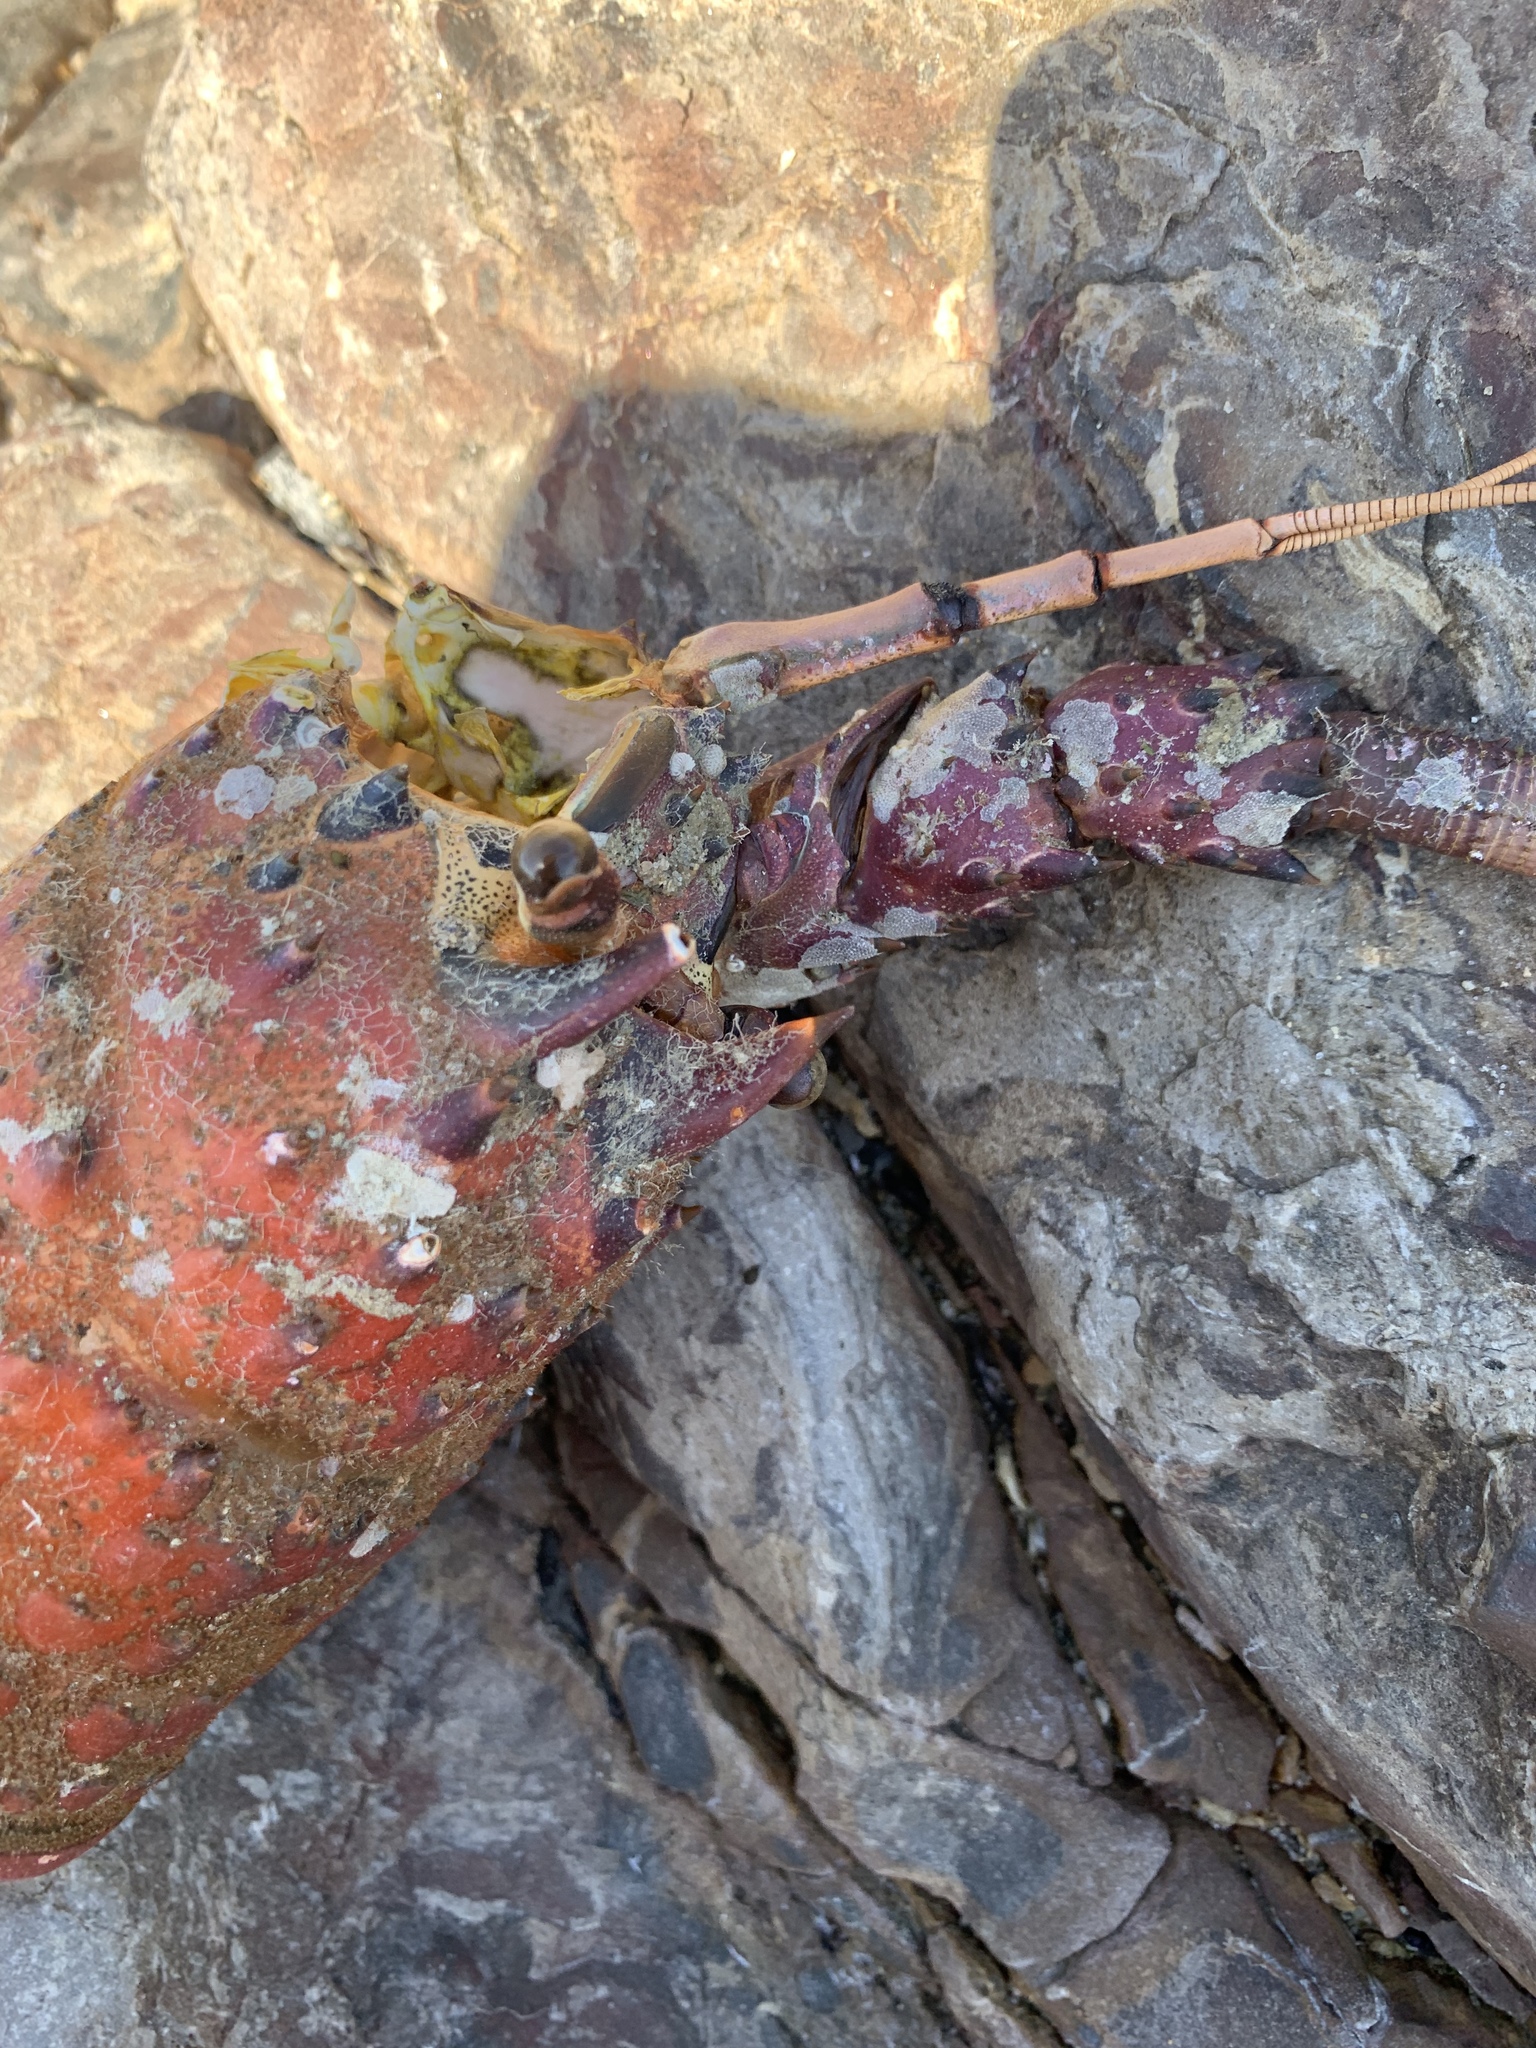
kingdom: Animalia
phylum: Arthropoda
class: Malacostraca
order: Decapoda
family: Palinuridae
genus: Panulirus
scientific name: Panulirus interruptus
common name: California spiny lobster
